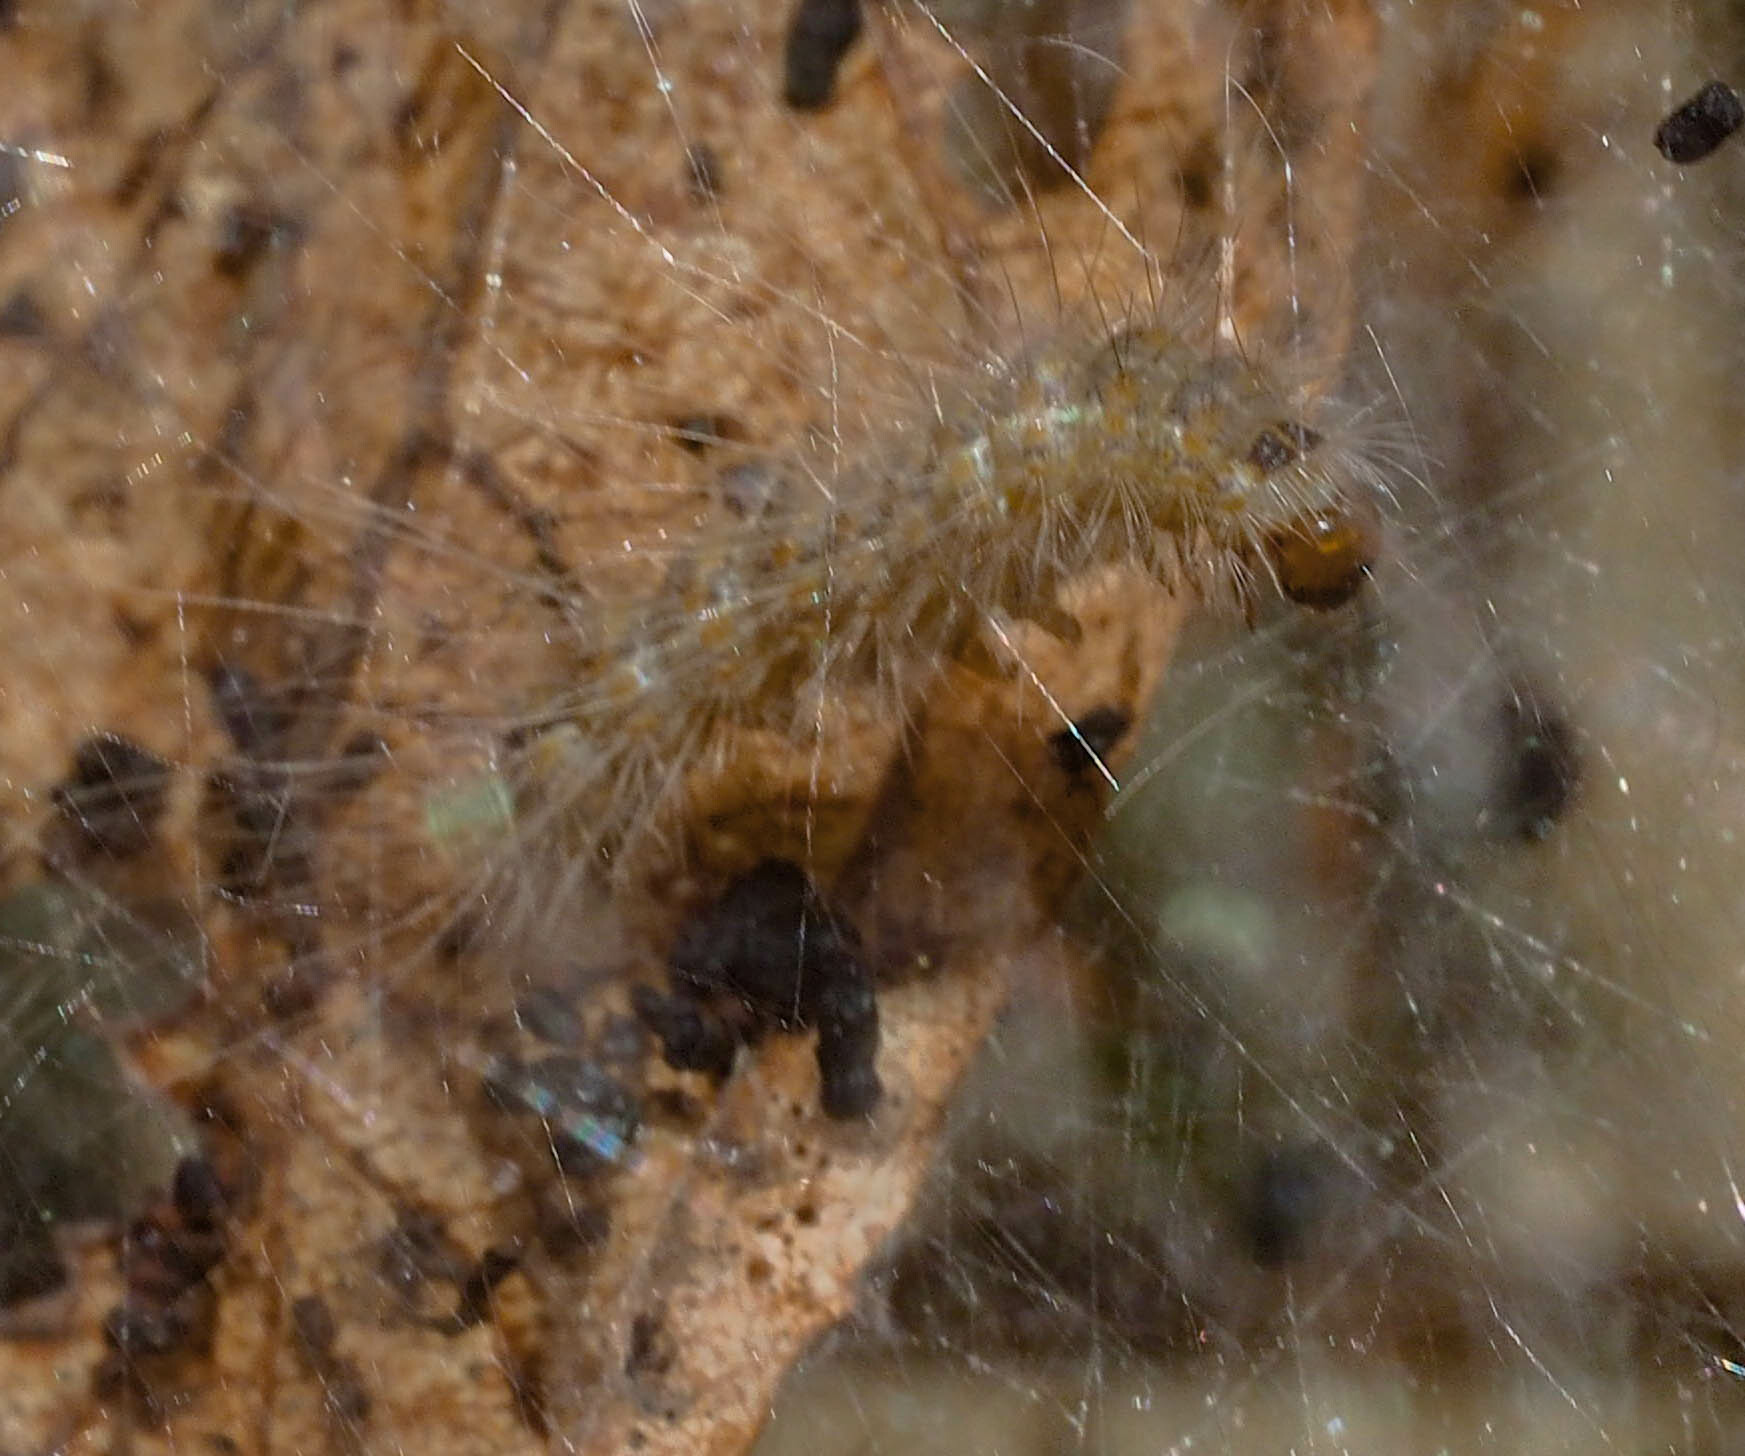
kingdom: Animalia
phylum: Arthropoda
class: Insecta
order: Lepidoptera
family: Erebidae
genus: Hyphantria
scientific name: Hyphantria cunea
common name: American white moth
